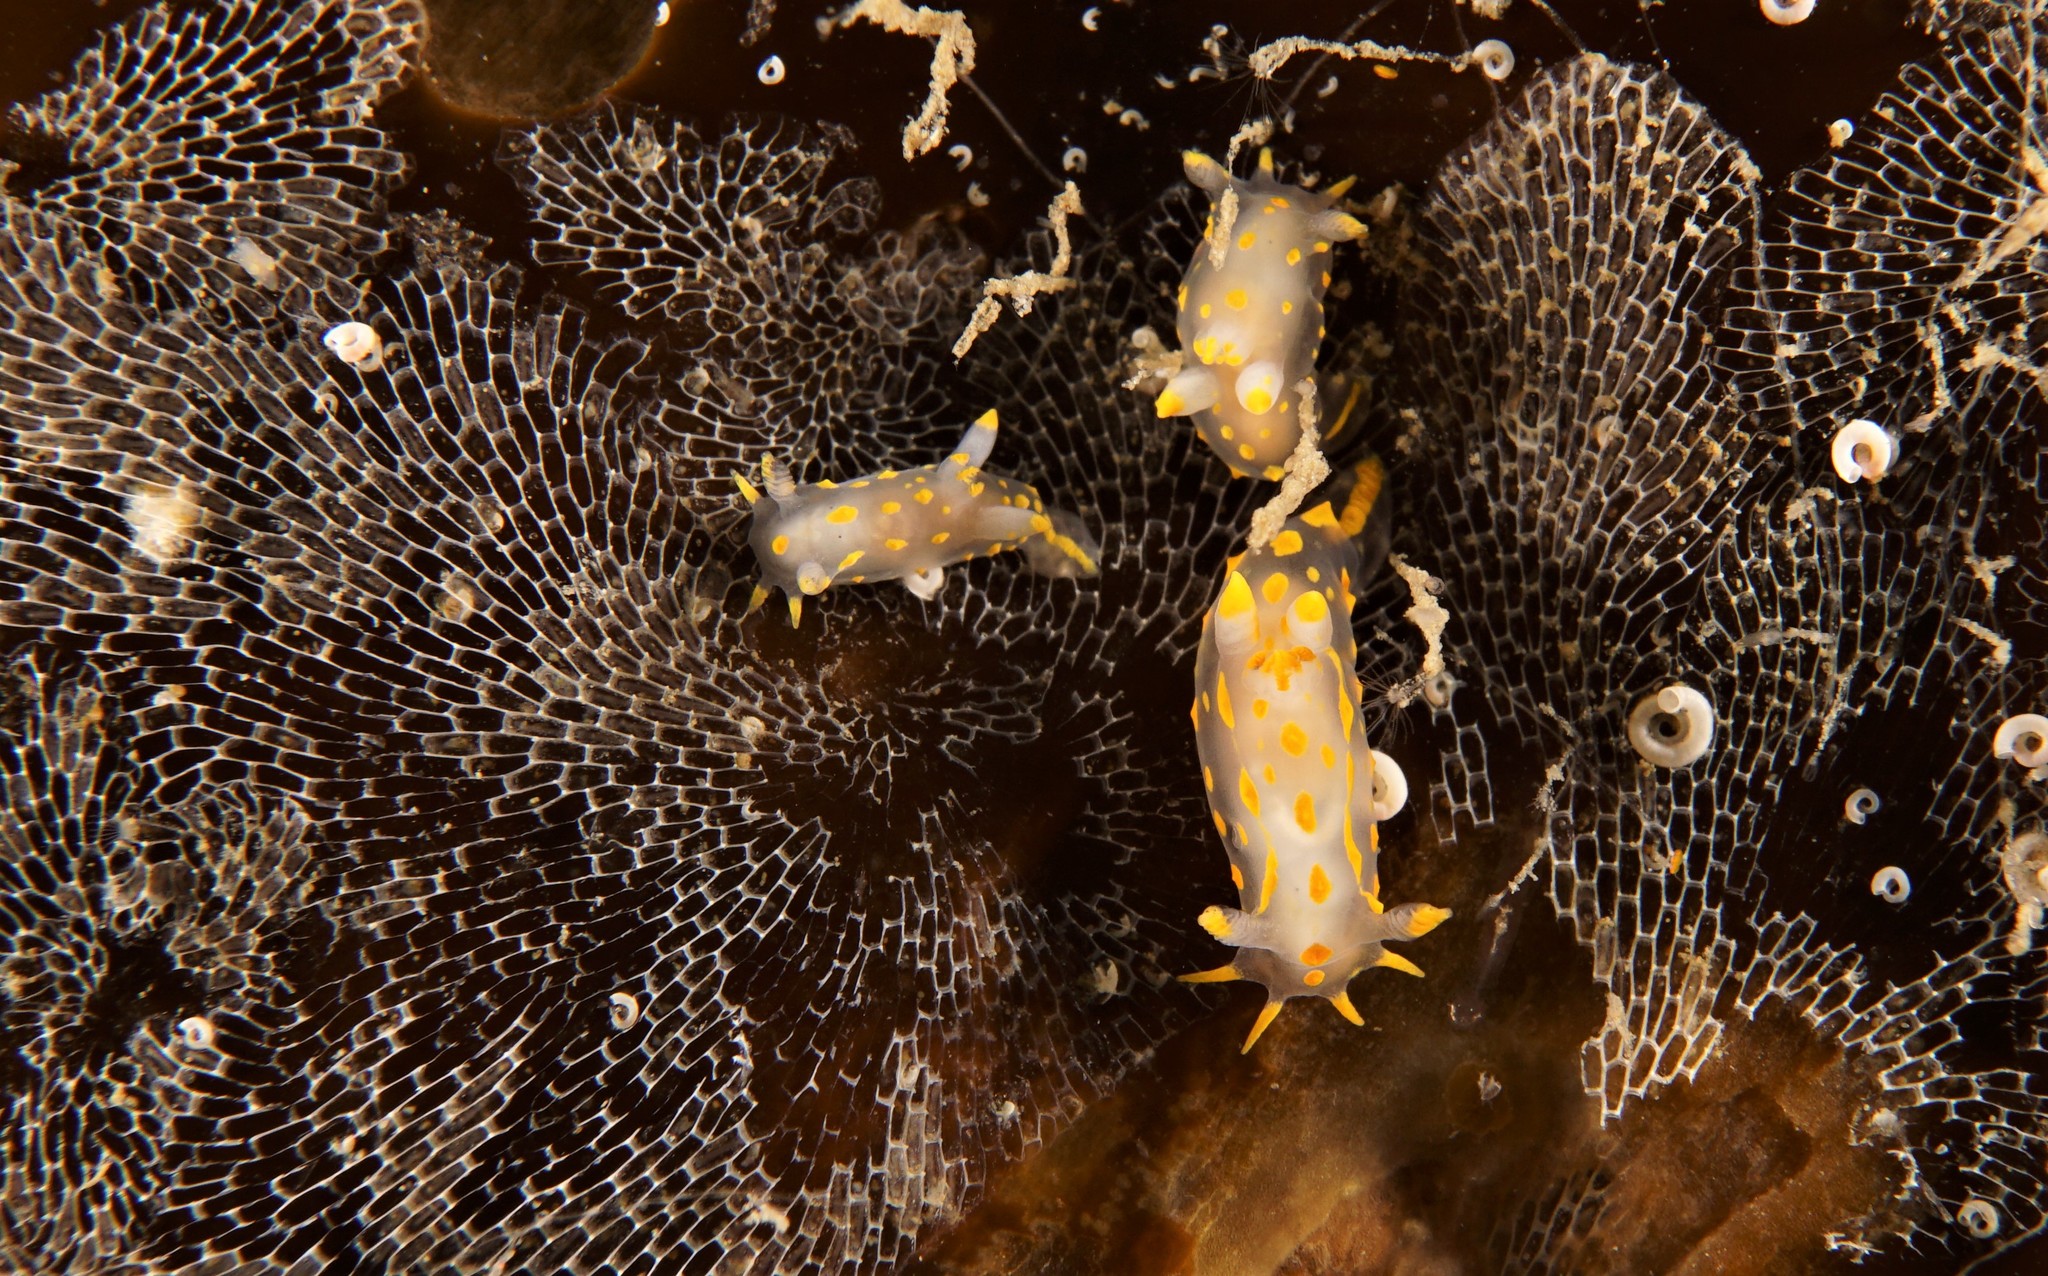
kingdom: Animalia
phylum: Mollusca
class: Gastropoda
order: Nudibranchia
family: Polyceridae
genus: Polycera
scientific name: Polycera norvegica
